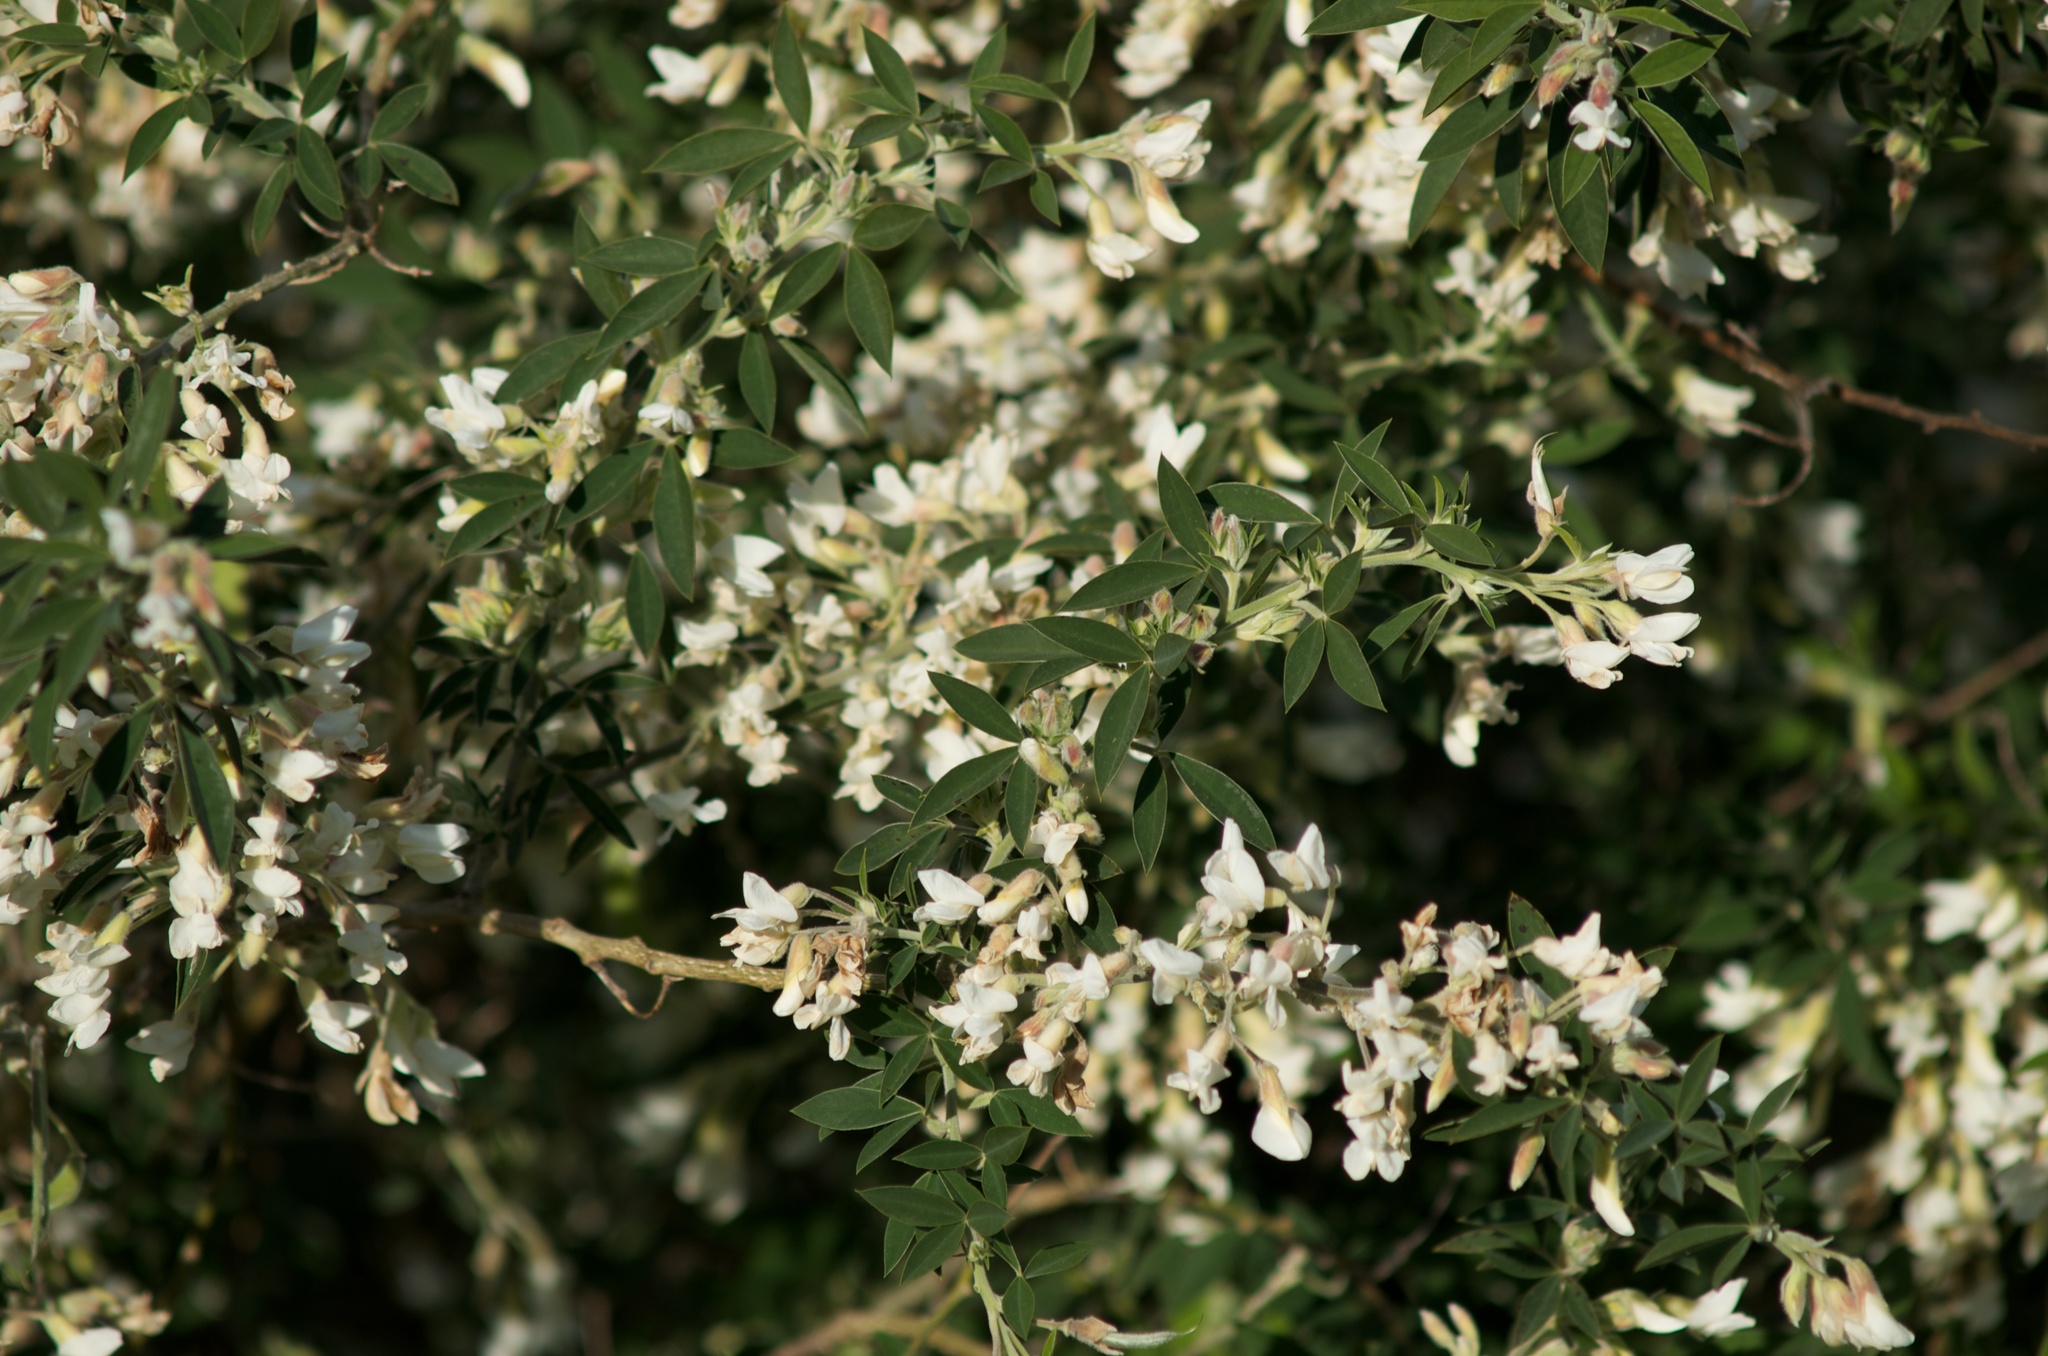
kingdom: Plantae
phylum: Tracheophyta
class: Magnoliopsida
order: Fabales
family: Fabaceae
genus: Chamaecytisus
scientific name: Chamaecytisus prolifer
